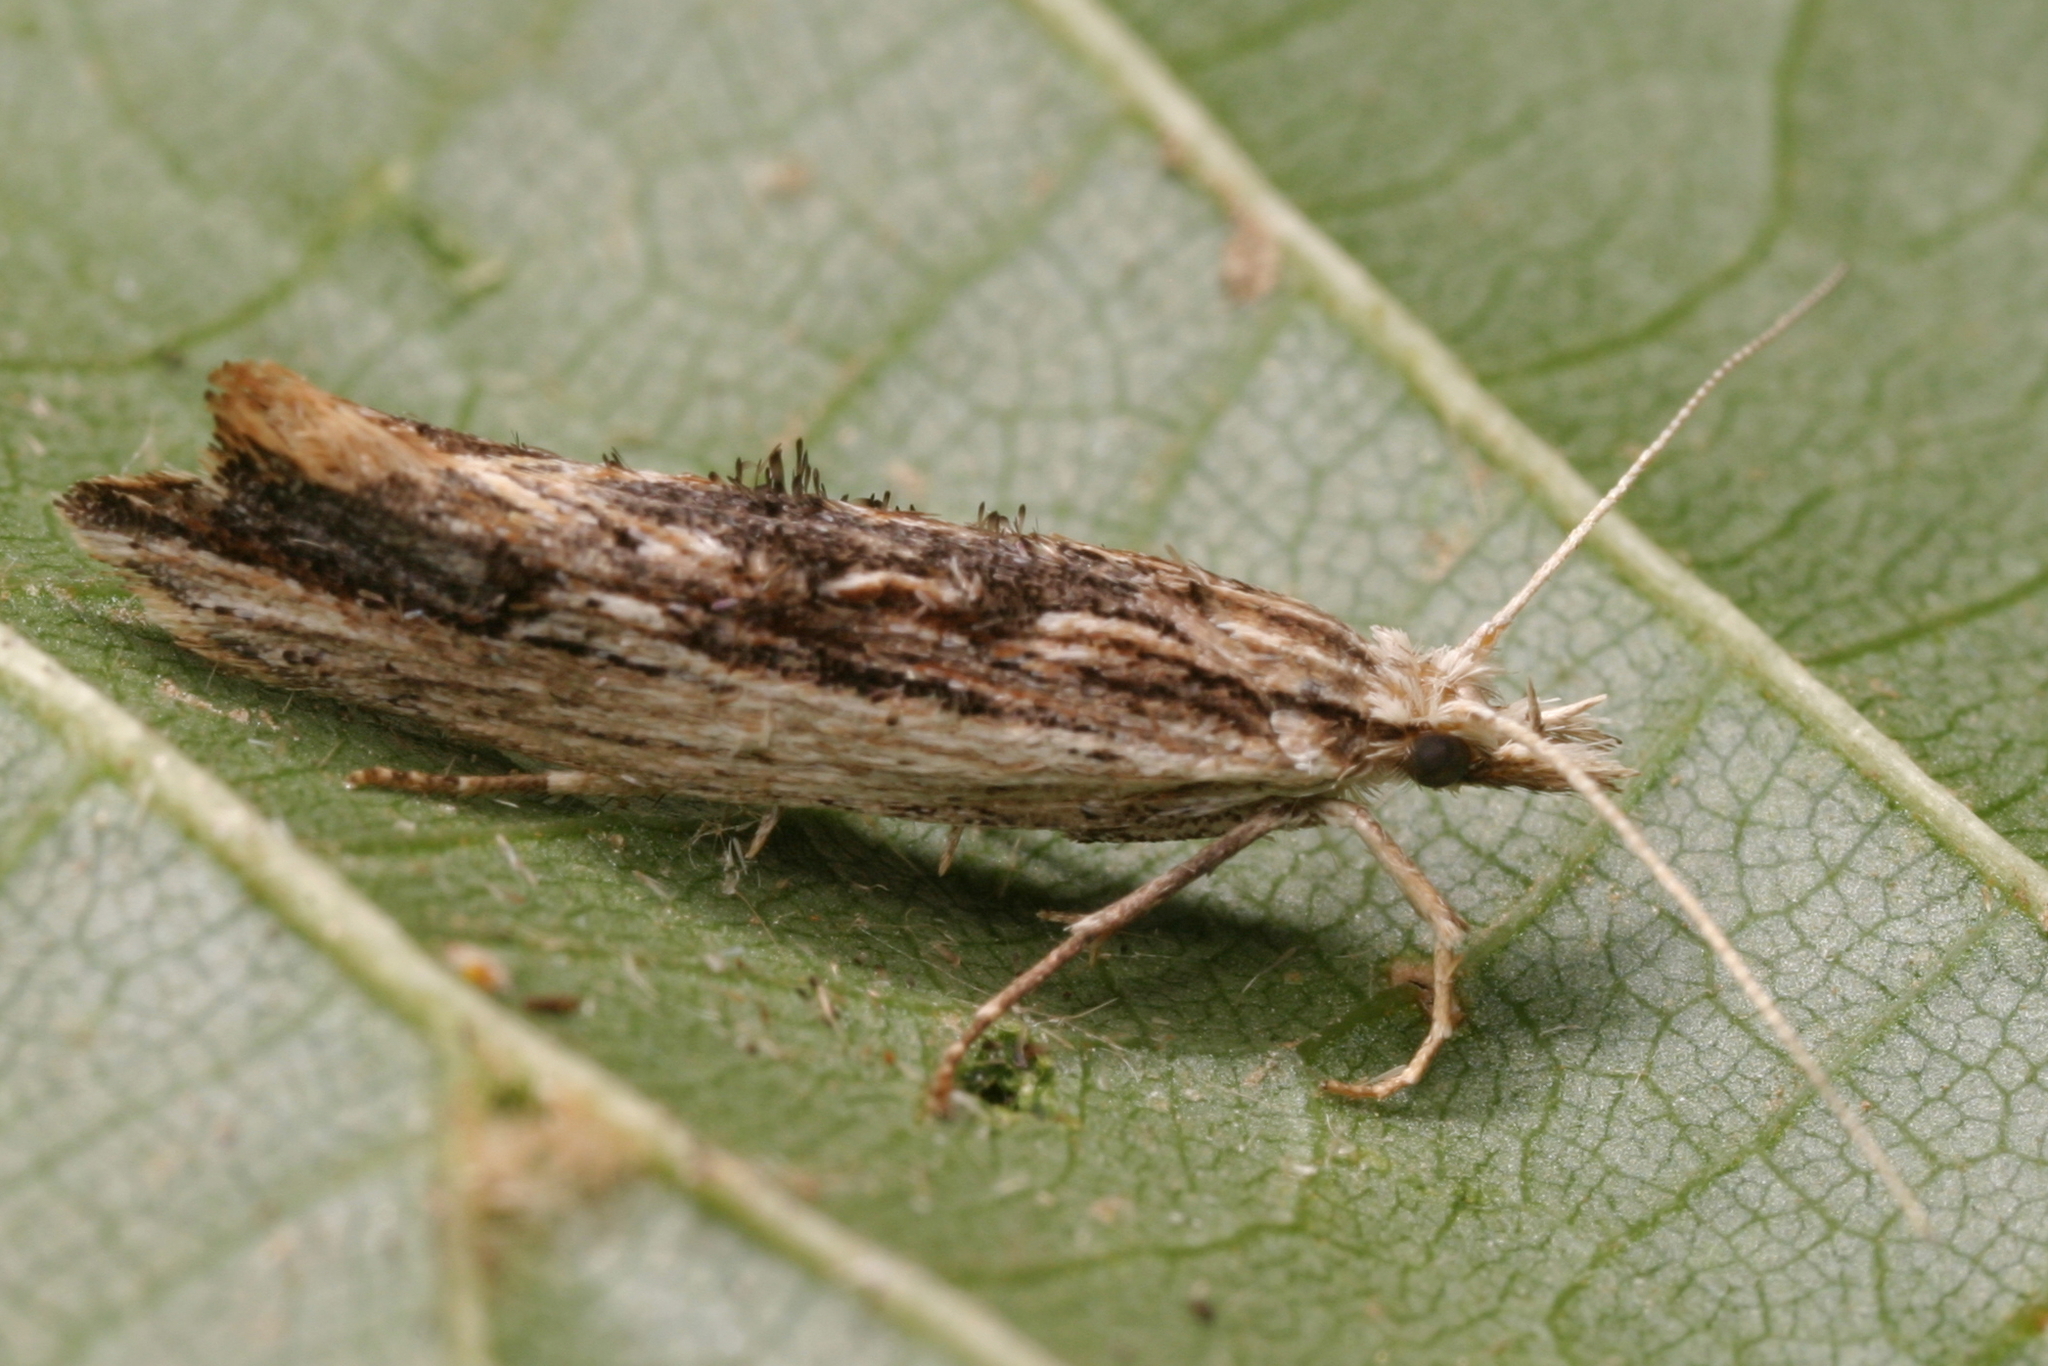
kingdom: Animalia
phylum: Arthropoda
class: Insecta
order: Lepidoptera
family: Ypsolophidae
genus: Ypsolopha
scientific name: Ypsolopha scabrella
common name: Wainscot smudge
